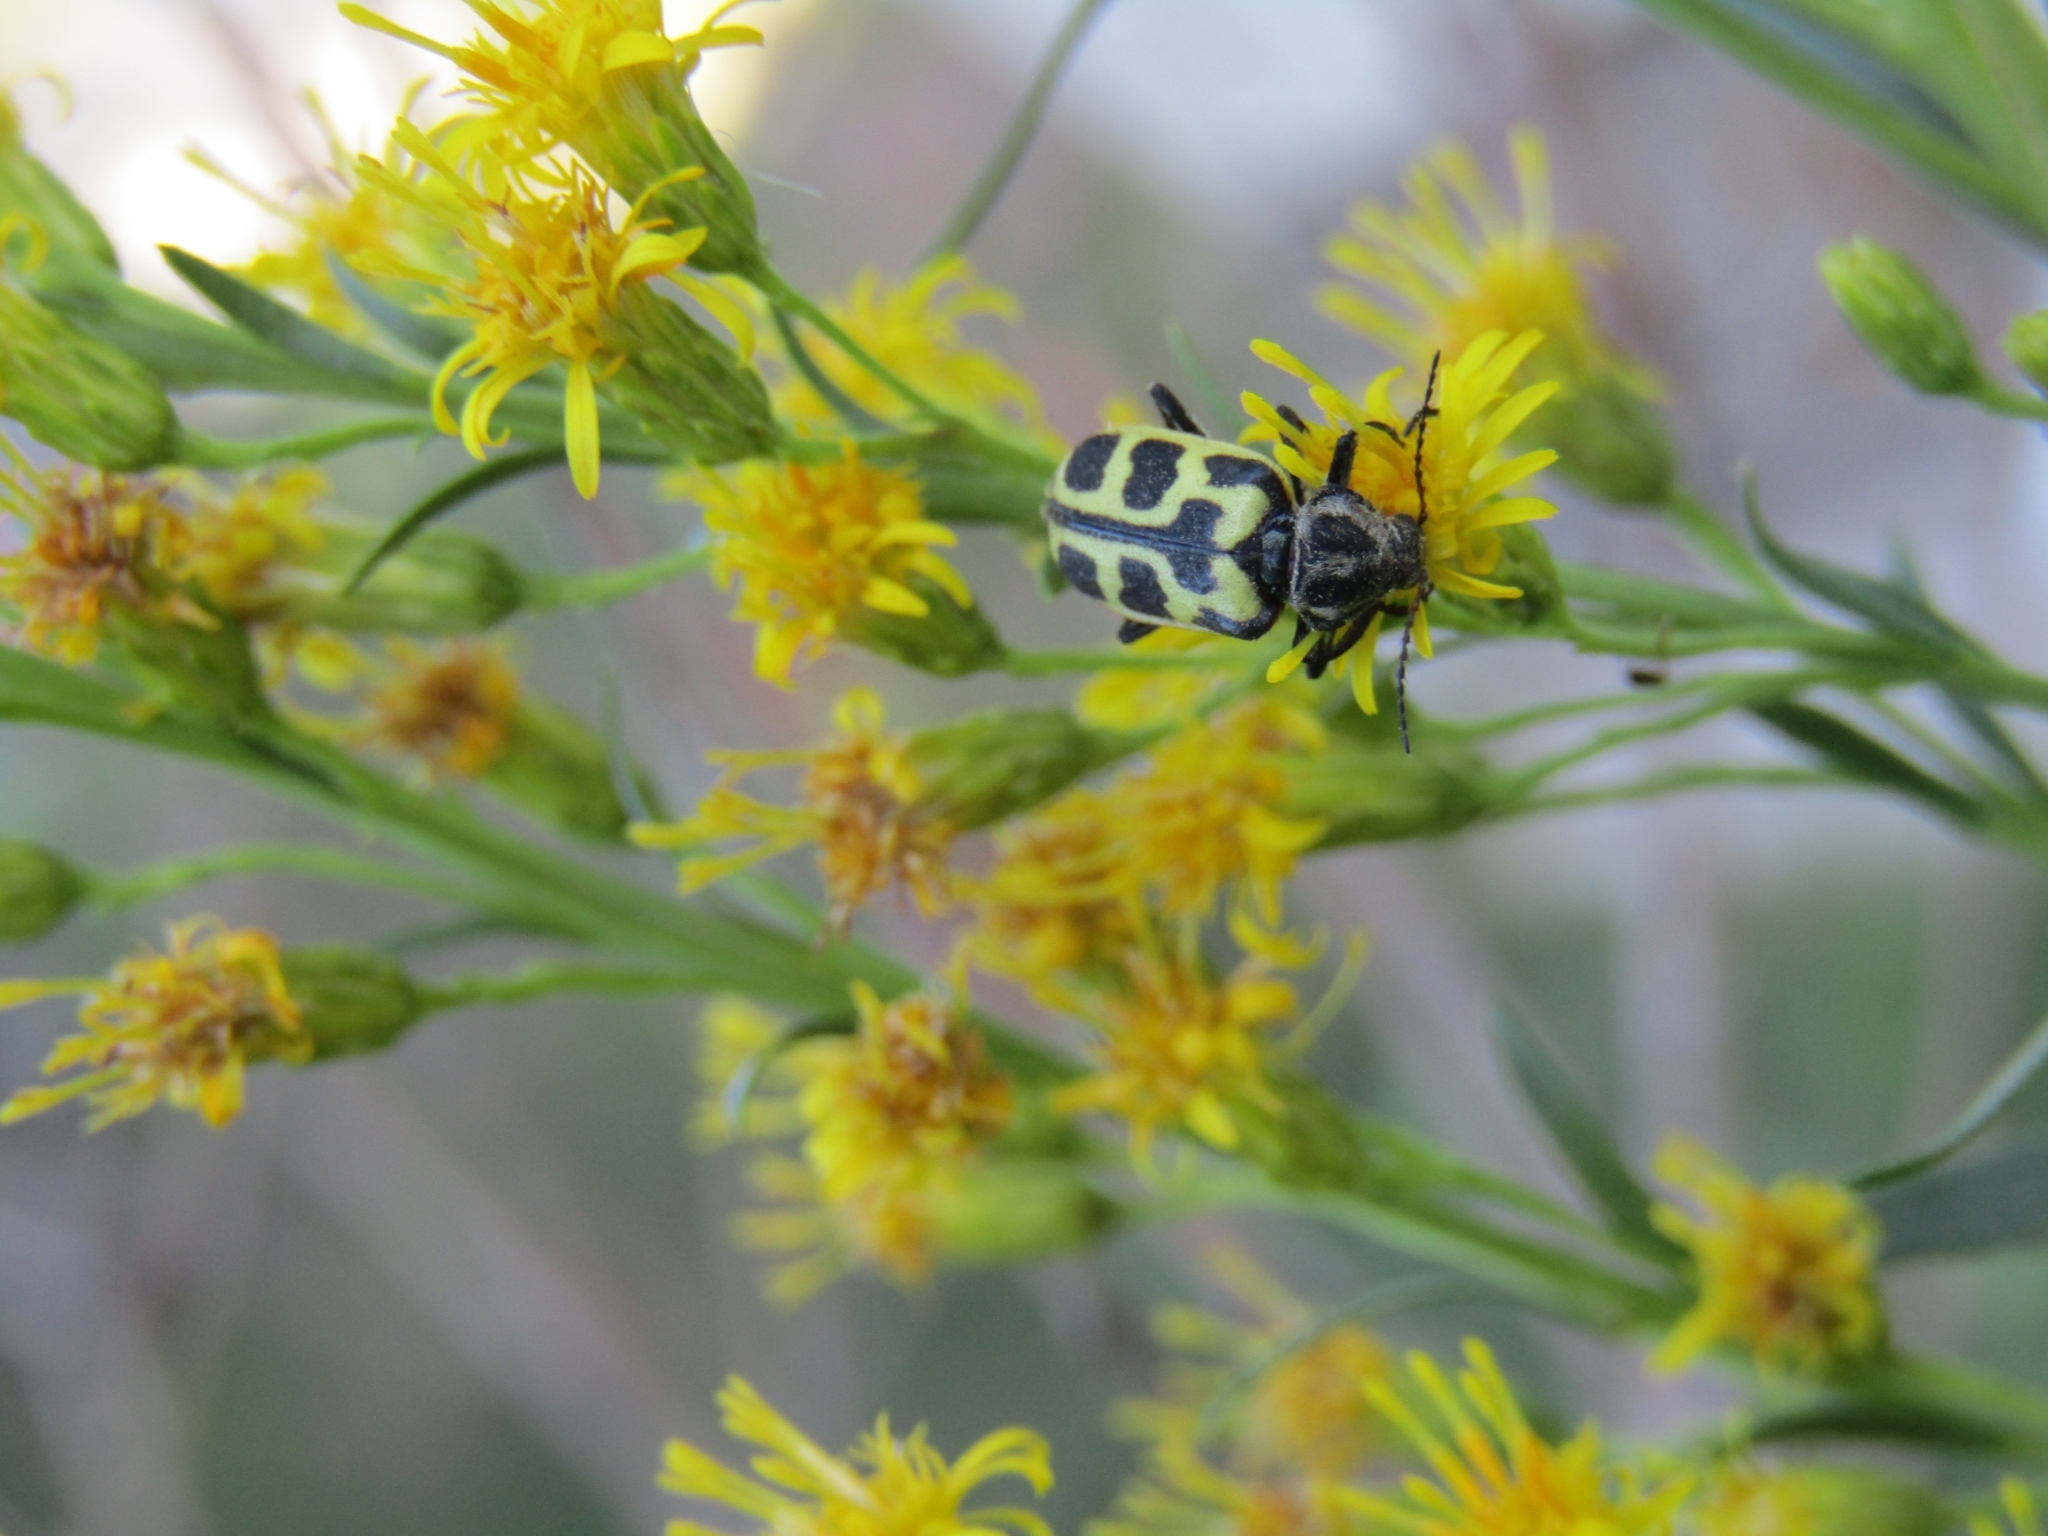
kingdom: Animalia
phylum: Arthropoda
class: Insecta
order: Coleoptera
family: Melyridae
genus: Astylus
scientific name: Astylus atromaculatus
